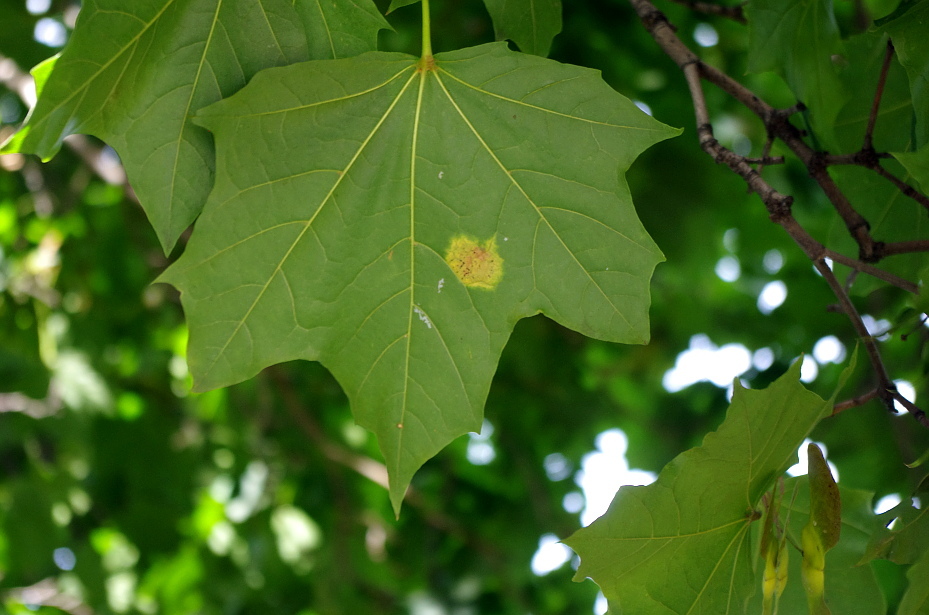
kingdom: Fungi
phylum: Ascomycota
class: Leotiomycetes
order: Rhytismatales
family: Rhytismataceae
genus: Rhytisma
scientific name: Rhytisma acerinum
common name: European tar spot
